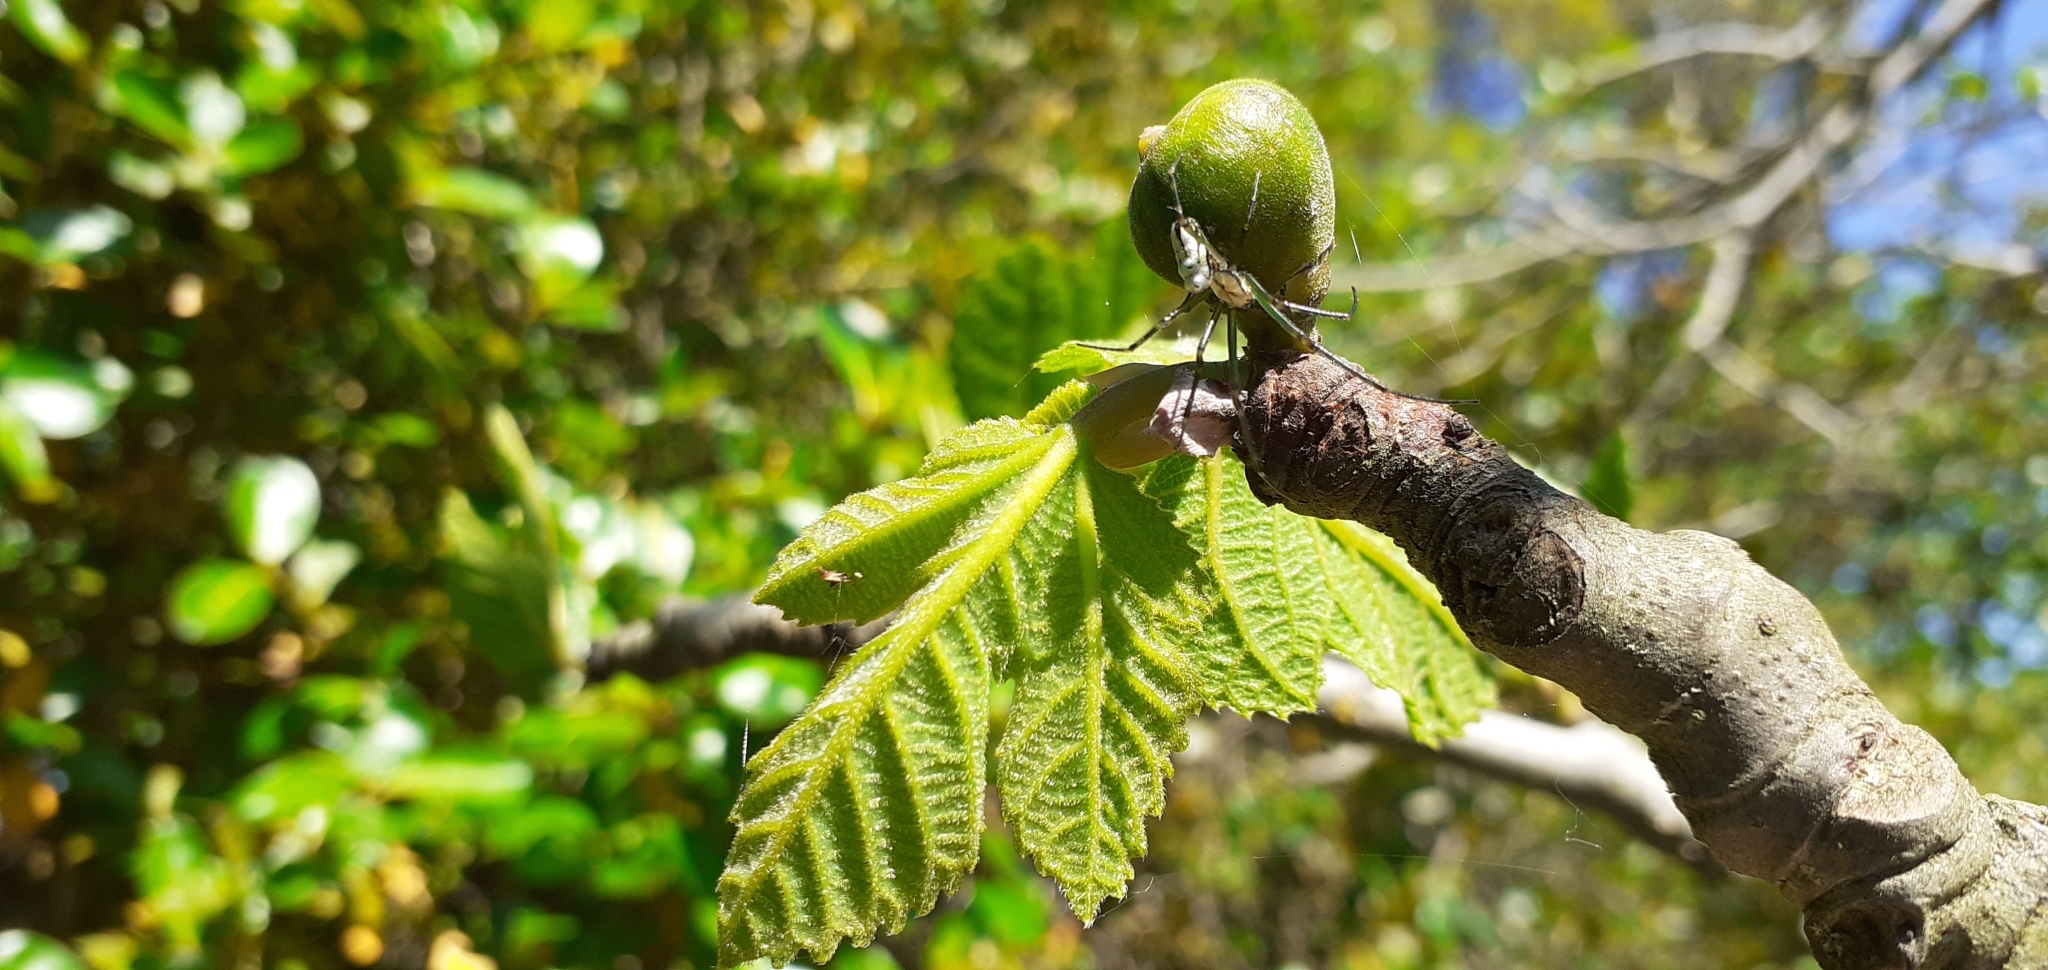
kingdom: Animalia
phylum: Arthropoda
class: Arachnida
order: Araneae
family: Tetragnathidae
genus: Leucauge
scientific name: Leucauge dromedaria
